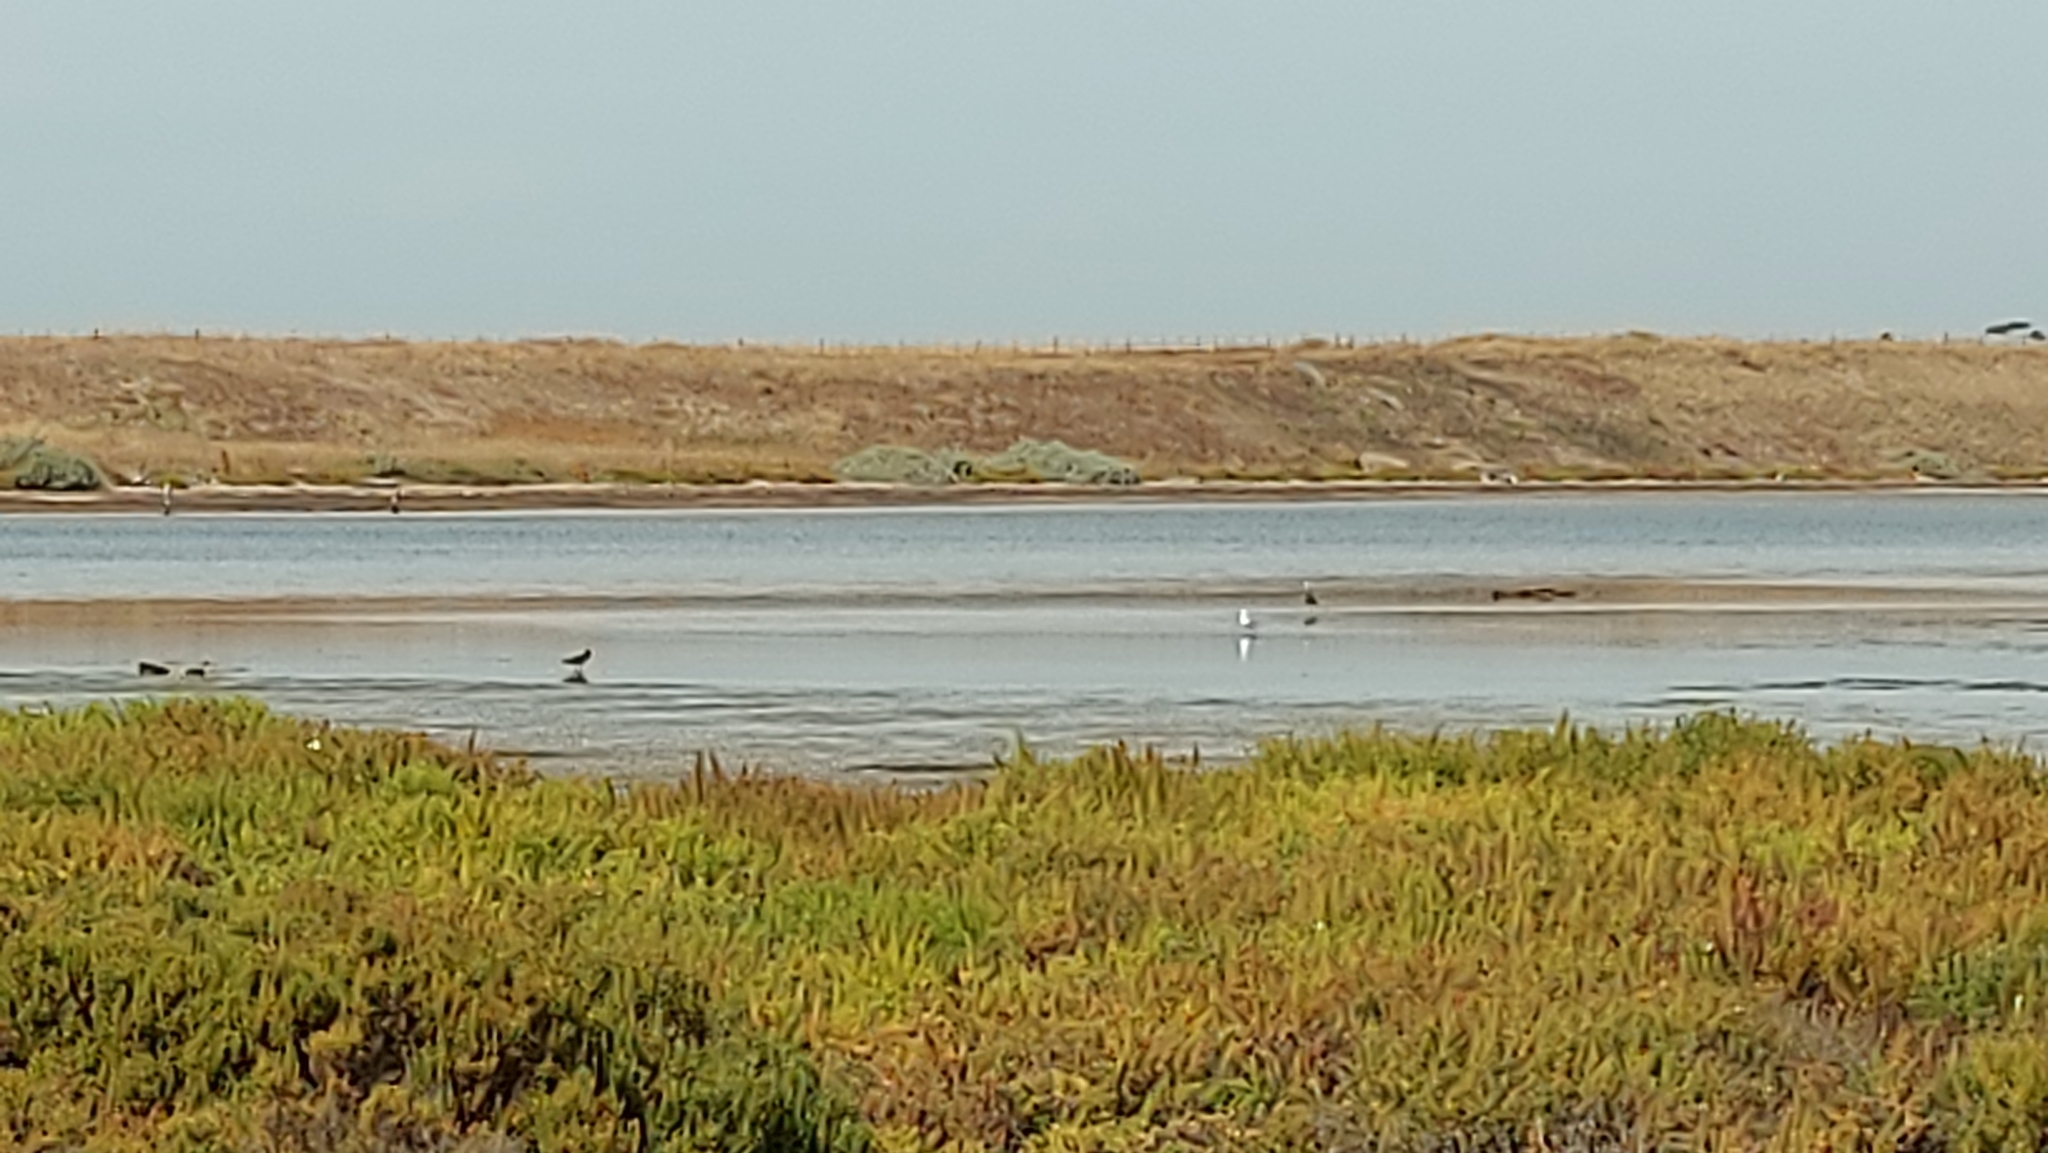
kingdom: Animalia
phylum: Chordata
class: Aves
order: Charadriiformes
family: Haematopodidae
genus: Haematopus
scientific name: Haematopus longirostris
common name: Pied oystercatcher
